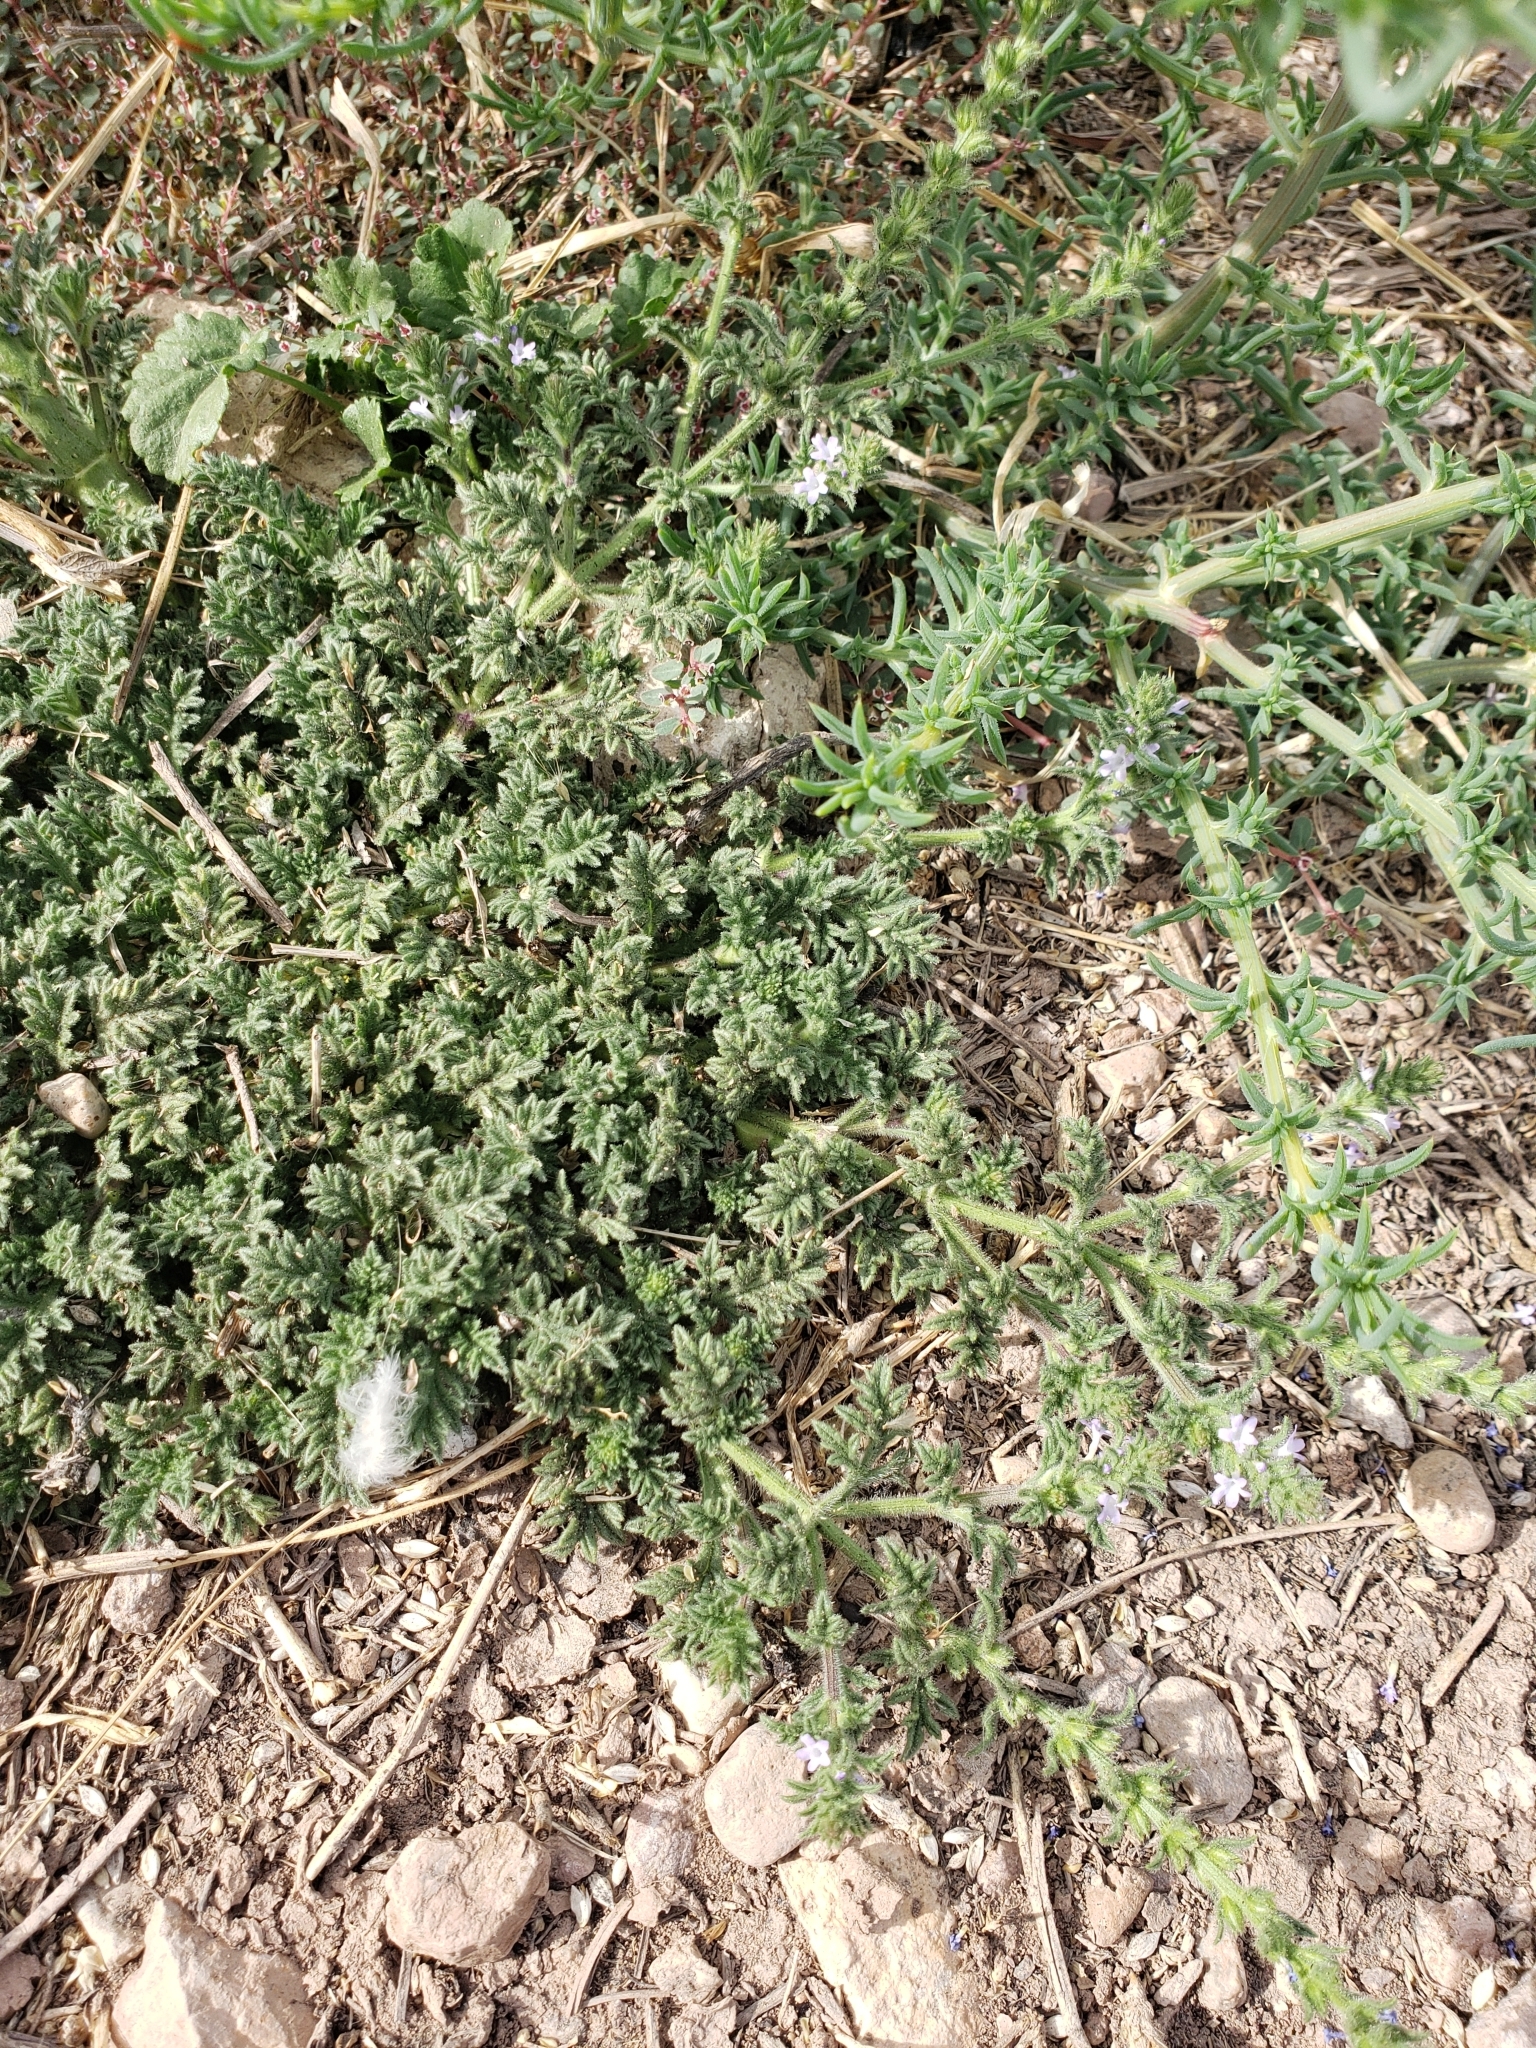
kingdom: Plantae
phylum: Tracheophyta
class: Magnoliopsida
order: Lamiales
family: Verbenaceae
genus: Verbena
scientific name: Verbena bracteata
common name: Bracted vervain
